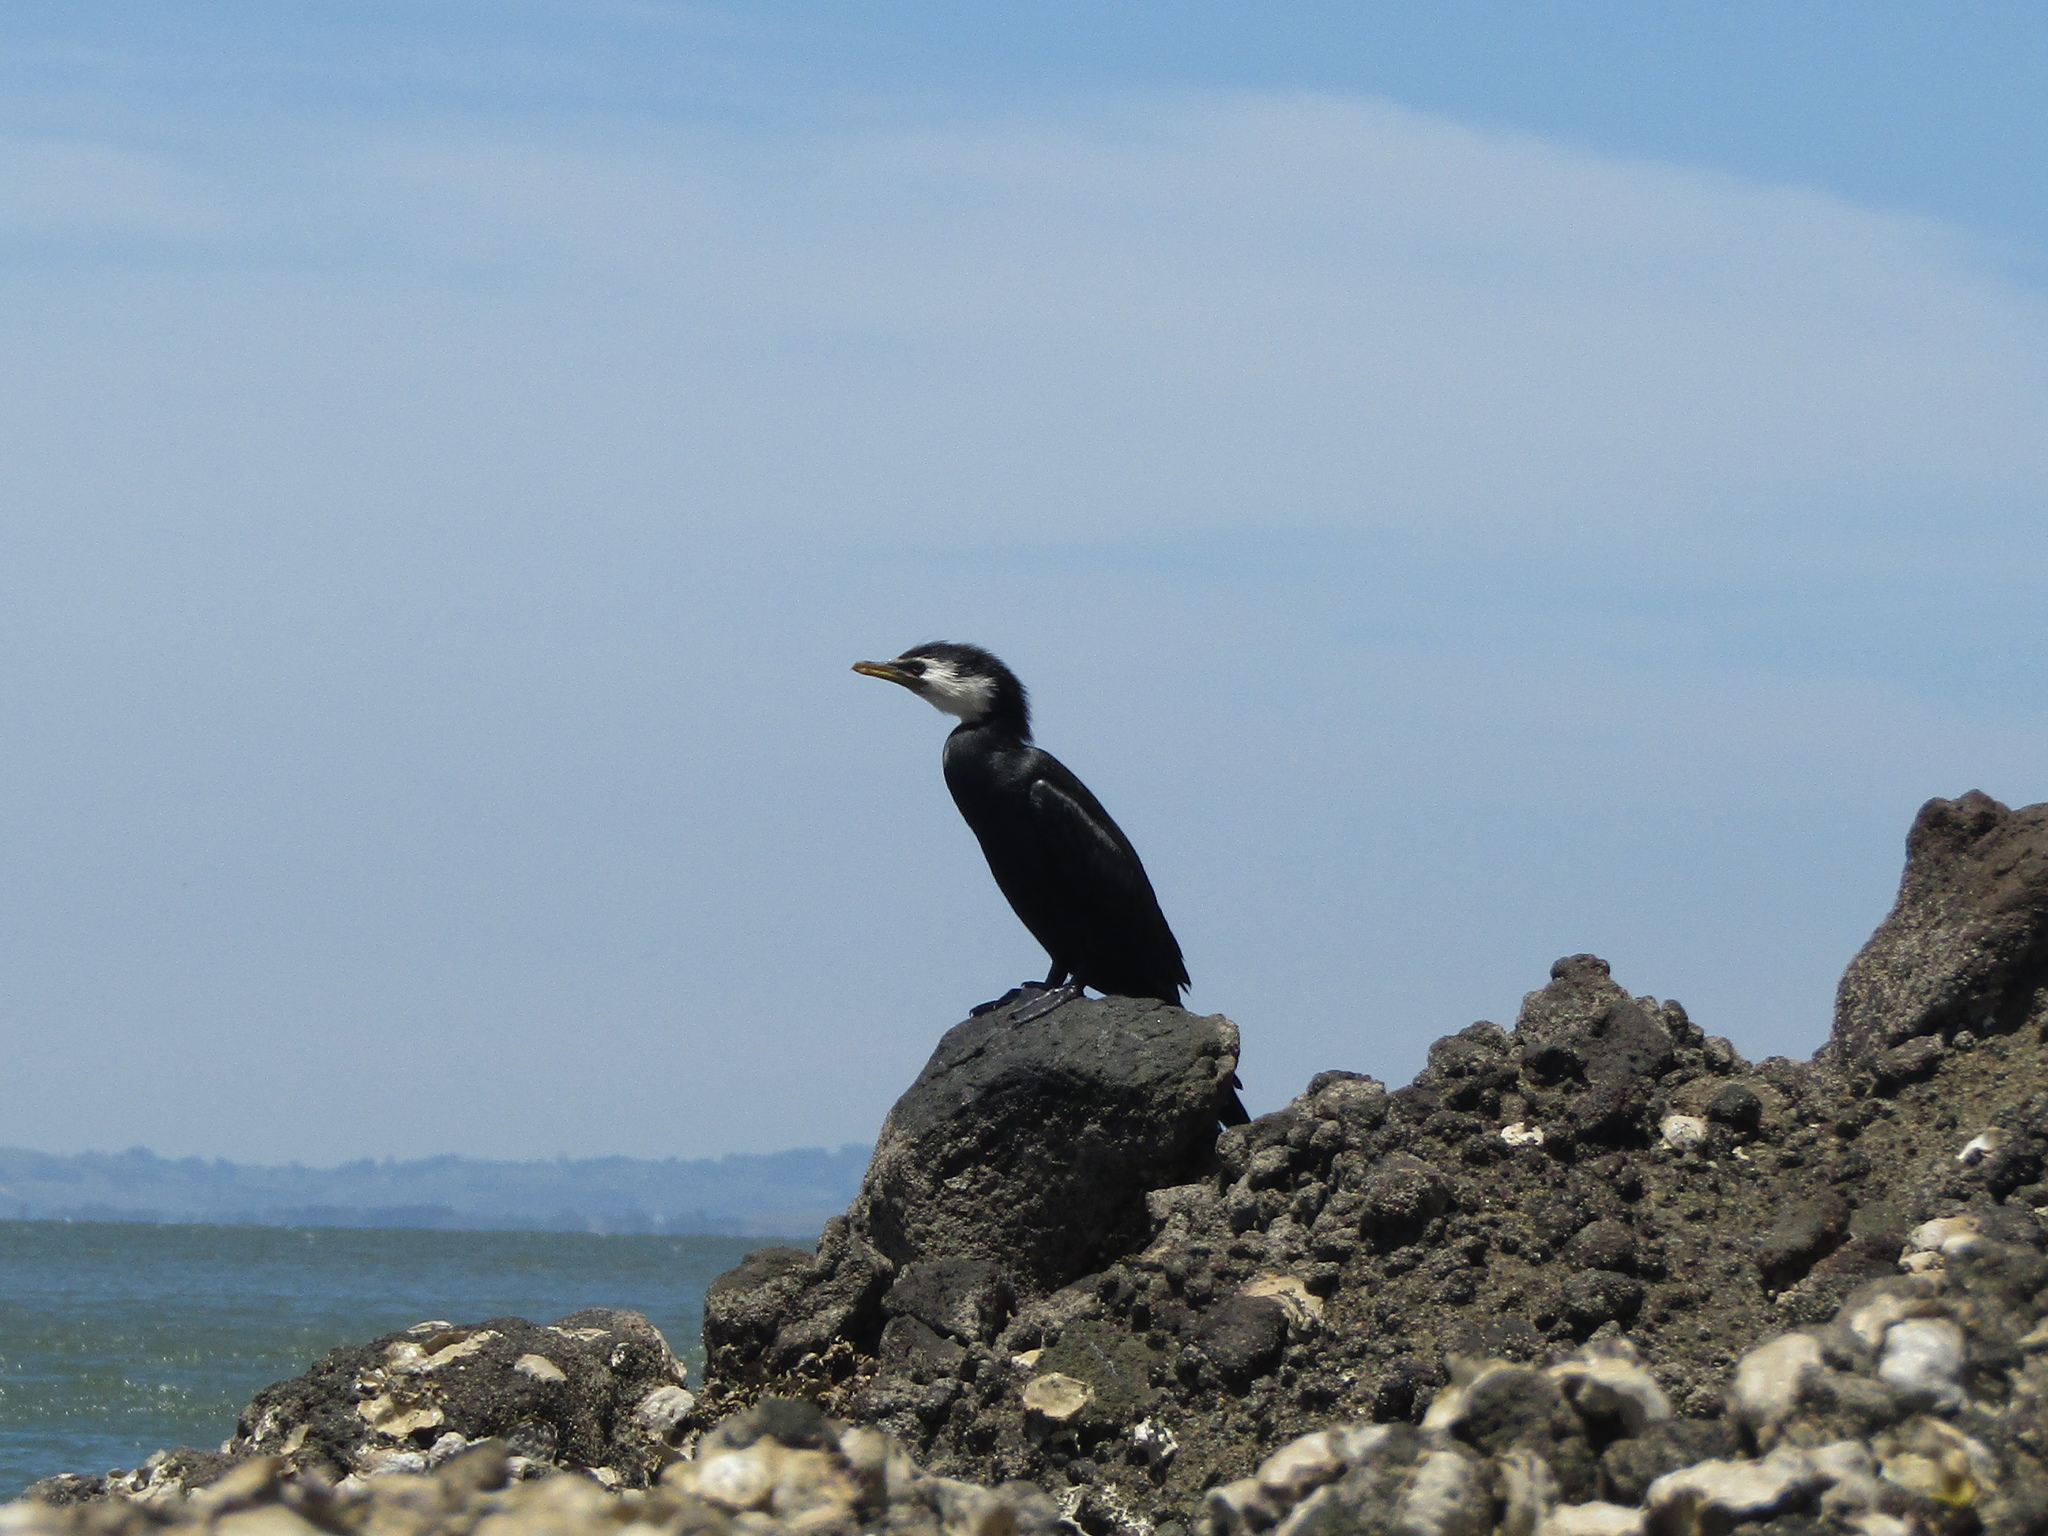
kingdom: Animalia
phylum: Chordata
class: Aves
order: Suliformes
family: Phalacrocoracidae
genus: Microcarbo
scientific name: Microcarbo melanoleucos
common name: Little pied cormorant
